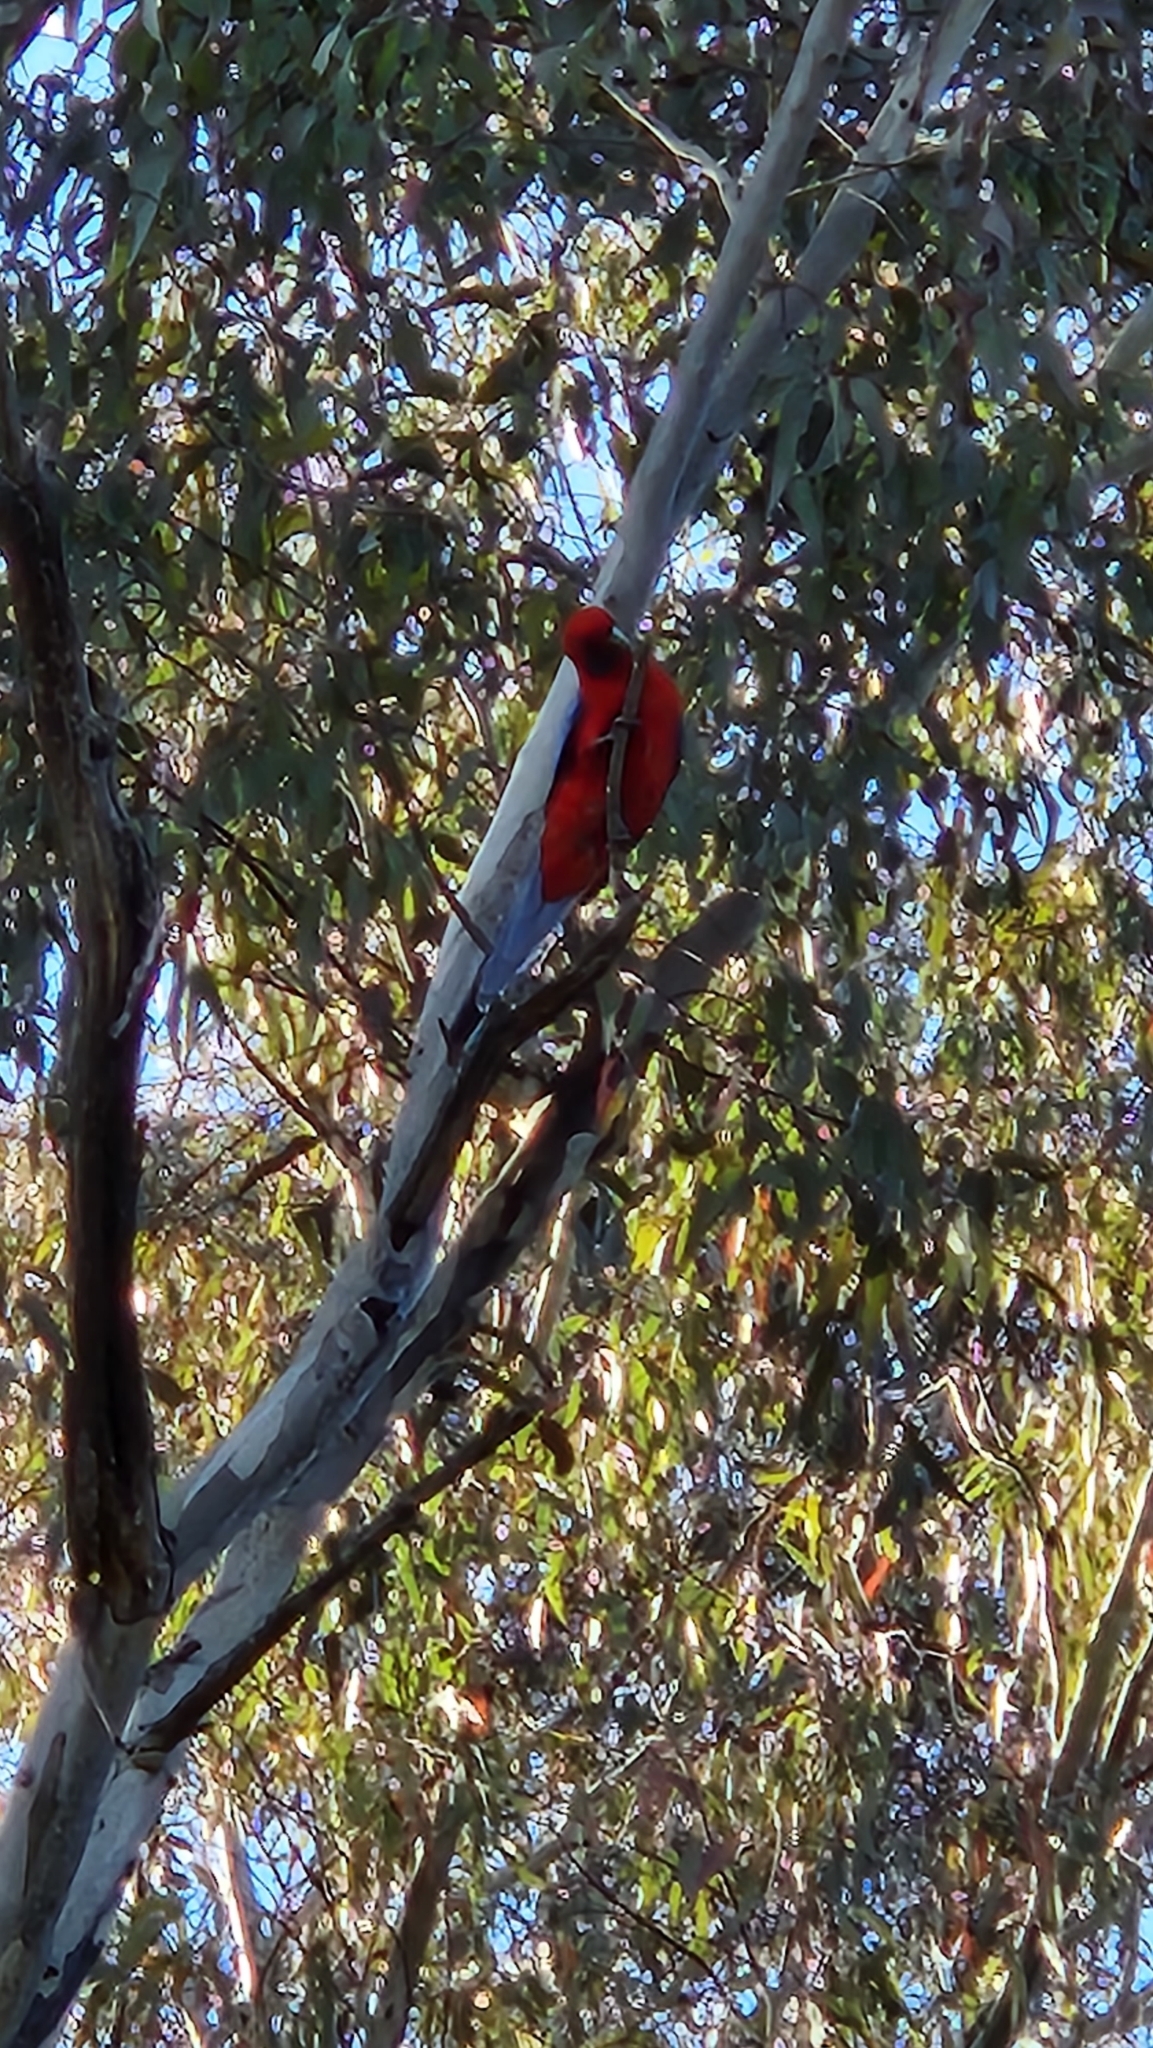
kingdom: Animalia
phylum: Chordata
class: Aves
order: Psittaciformes
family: Psittacidae
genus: Platycercus
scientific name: Platycercus elegans
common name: Crimson rosella
